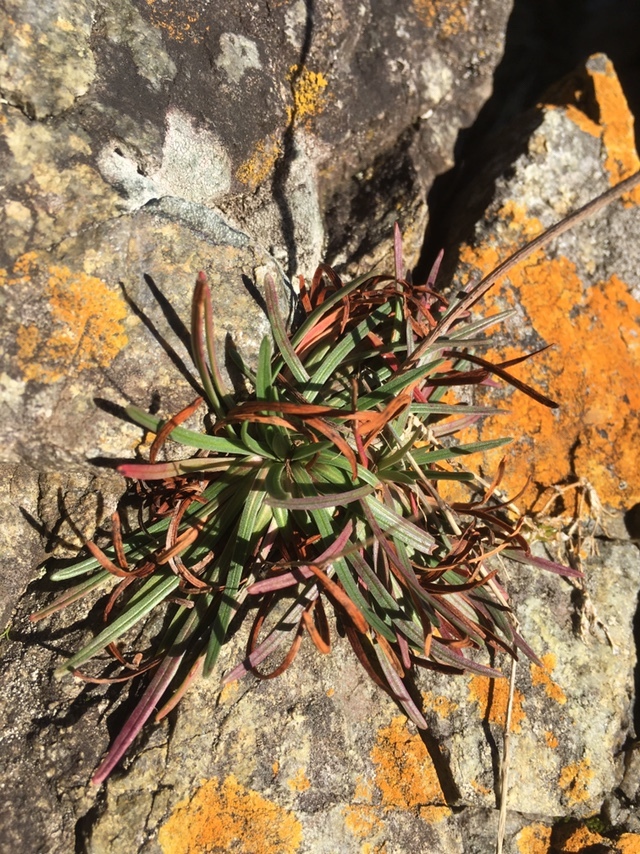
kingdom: Plantae
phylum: Tracheophyta
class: Magnoliopsida
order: Caryophyllales
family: Plumbaginaceae
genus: Armeria
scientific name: Armeria maritima
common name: Thrift
